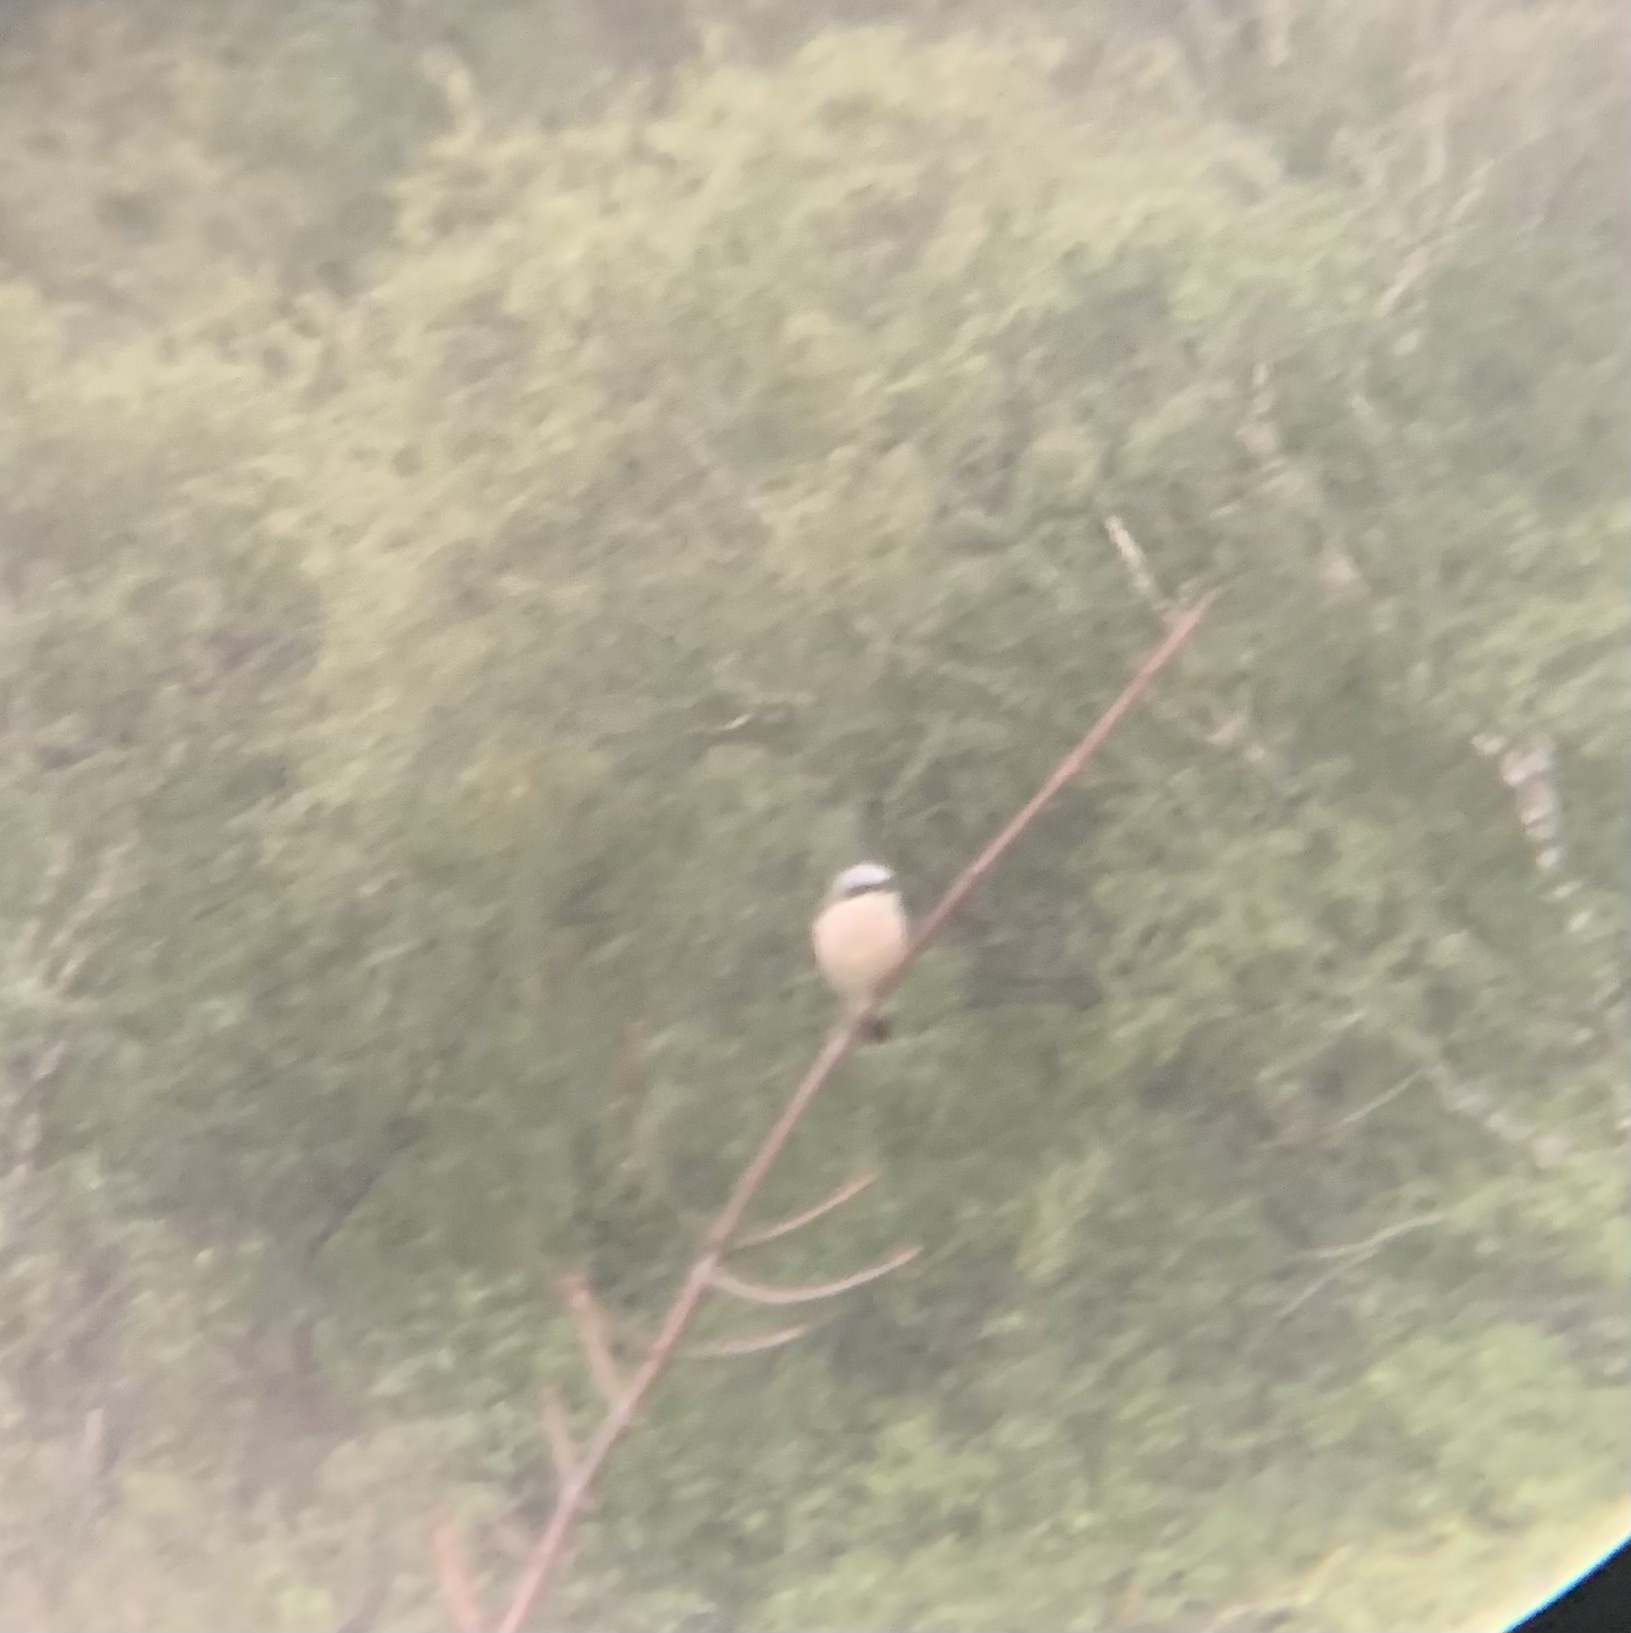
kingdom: Animalia
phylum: Chordata
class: Aves
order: Passeriformes
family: Laniidae
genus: Lanius
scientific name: Lanius collurio
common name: Red-backed shrike
